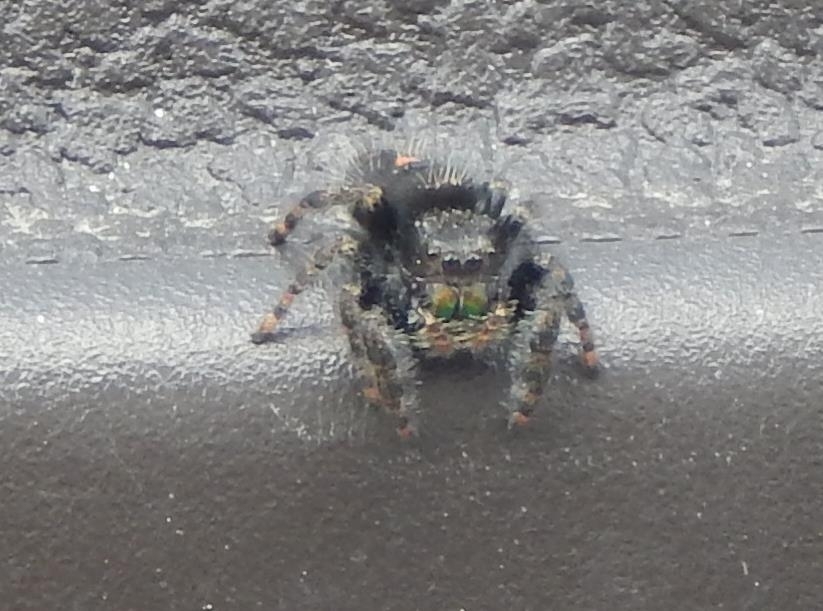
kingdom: Animalia
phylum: Arthropoda
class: Arachnida
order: Araneae
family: Salticidae
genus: Phidippus
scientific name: Phidippus audax
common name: Bold jumper
